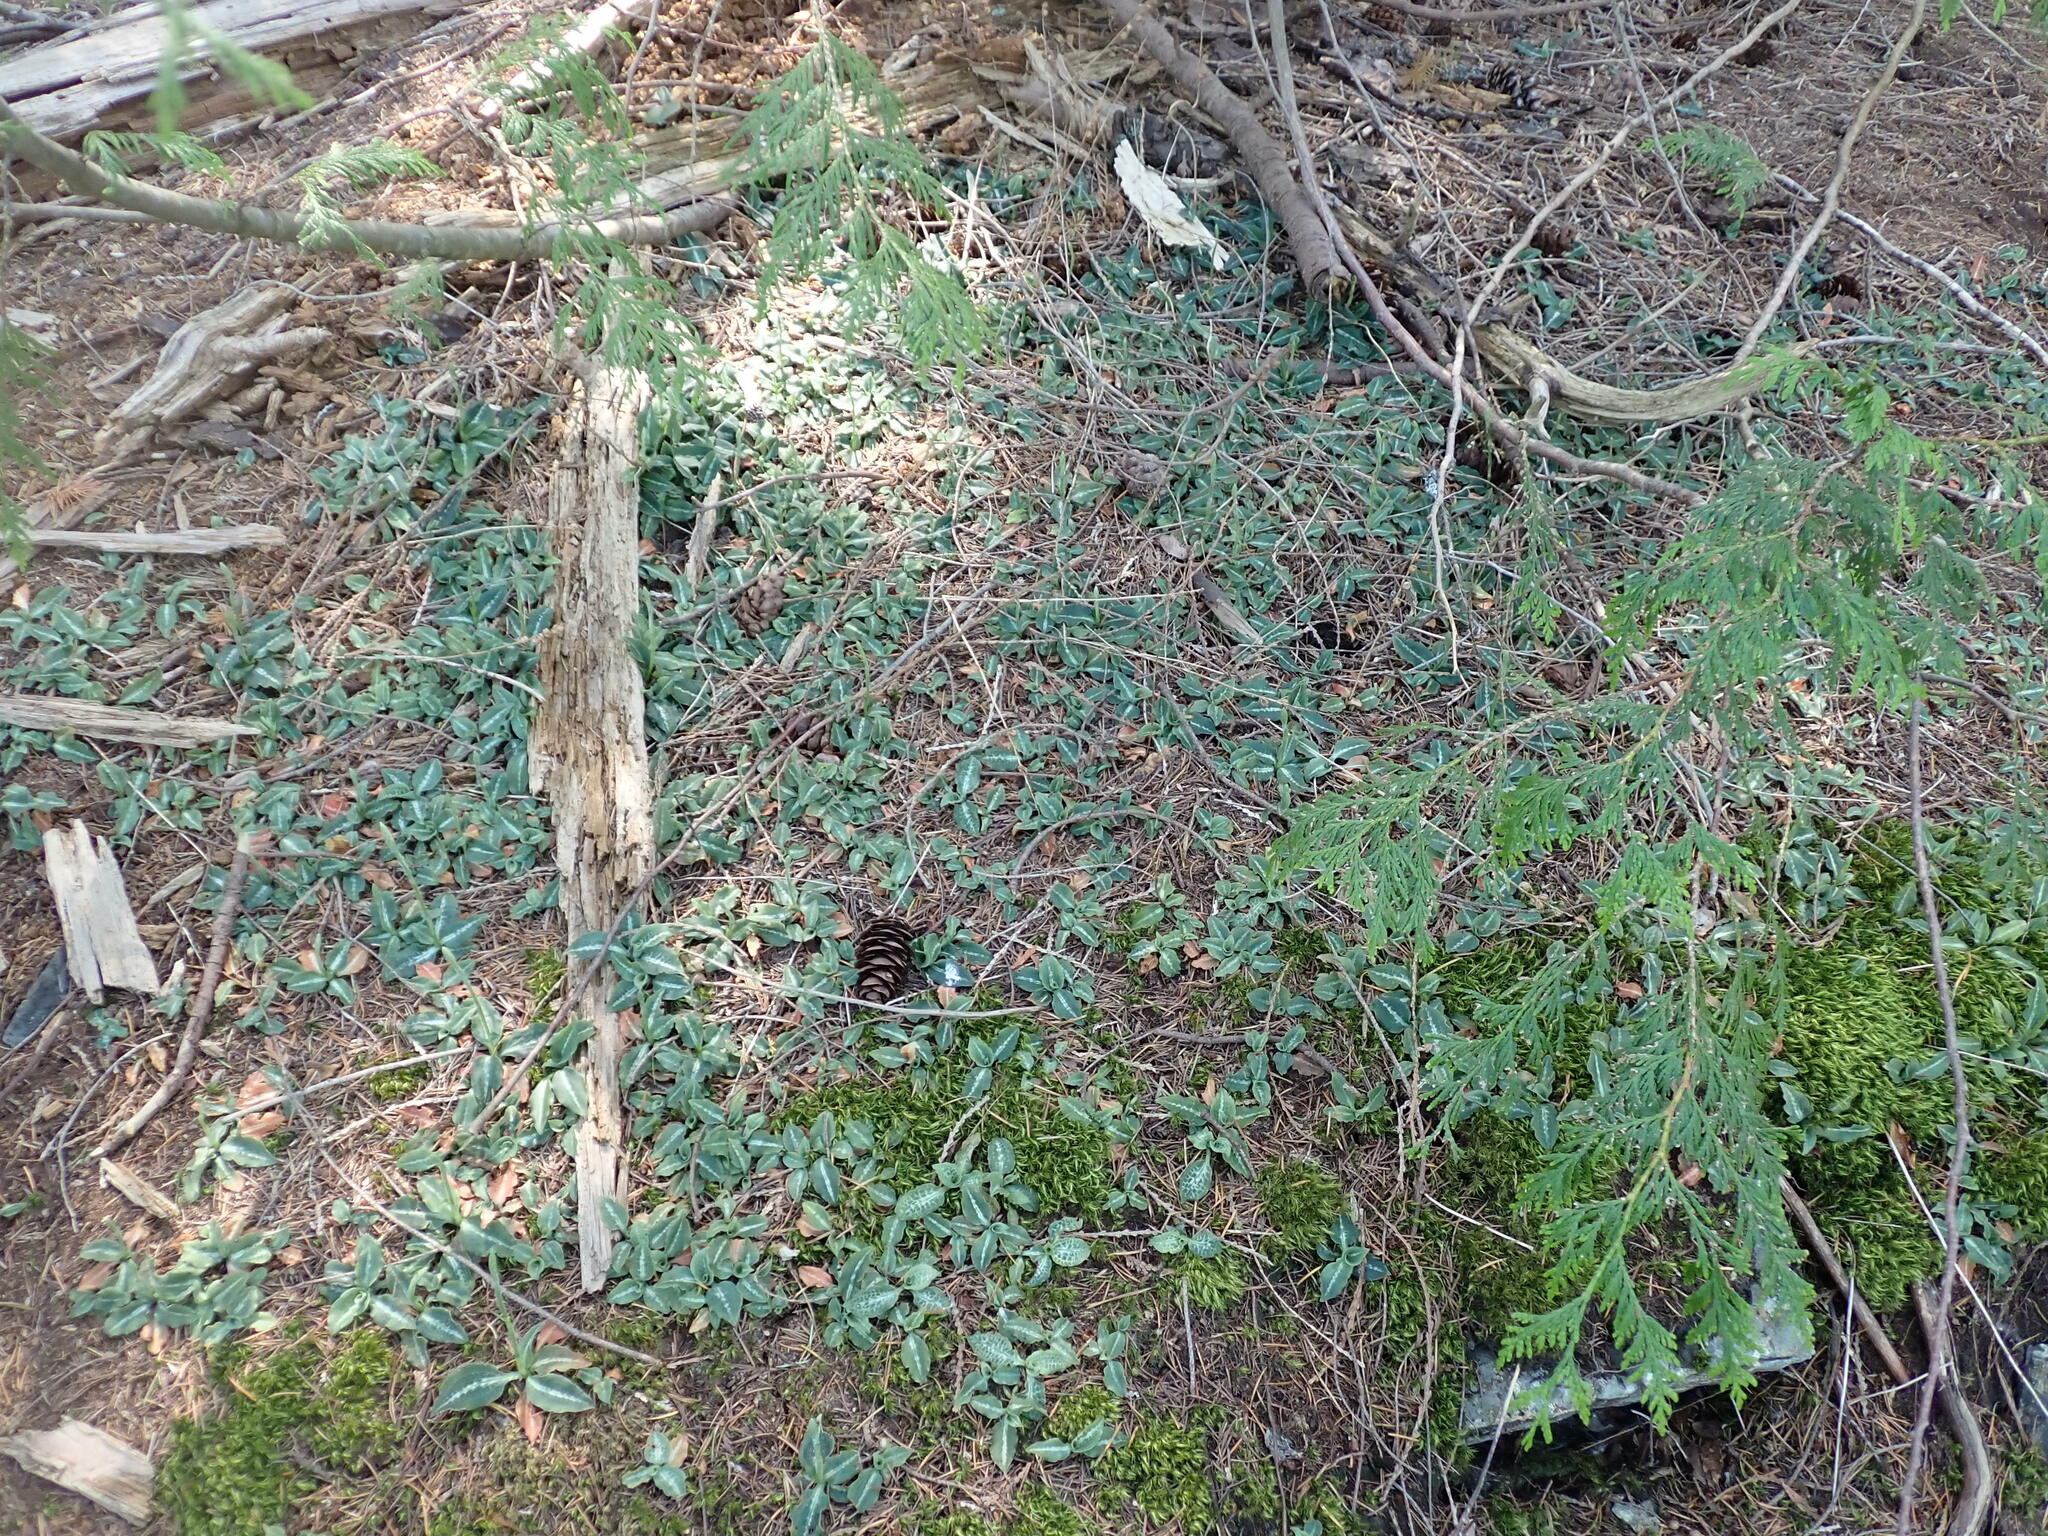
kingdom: Plantae
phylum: Tracheophyta
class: Liliopsida
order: Asparagales
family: Orchidaceae
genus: Goodyera
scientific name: Goodyera oblongifolia
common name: Giant rattlesnake-plantain
